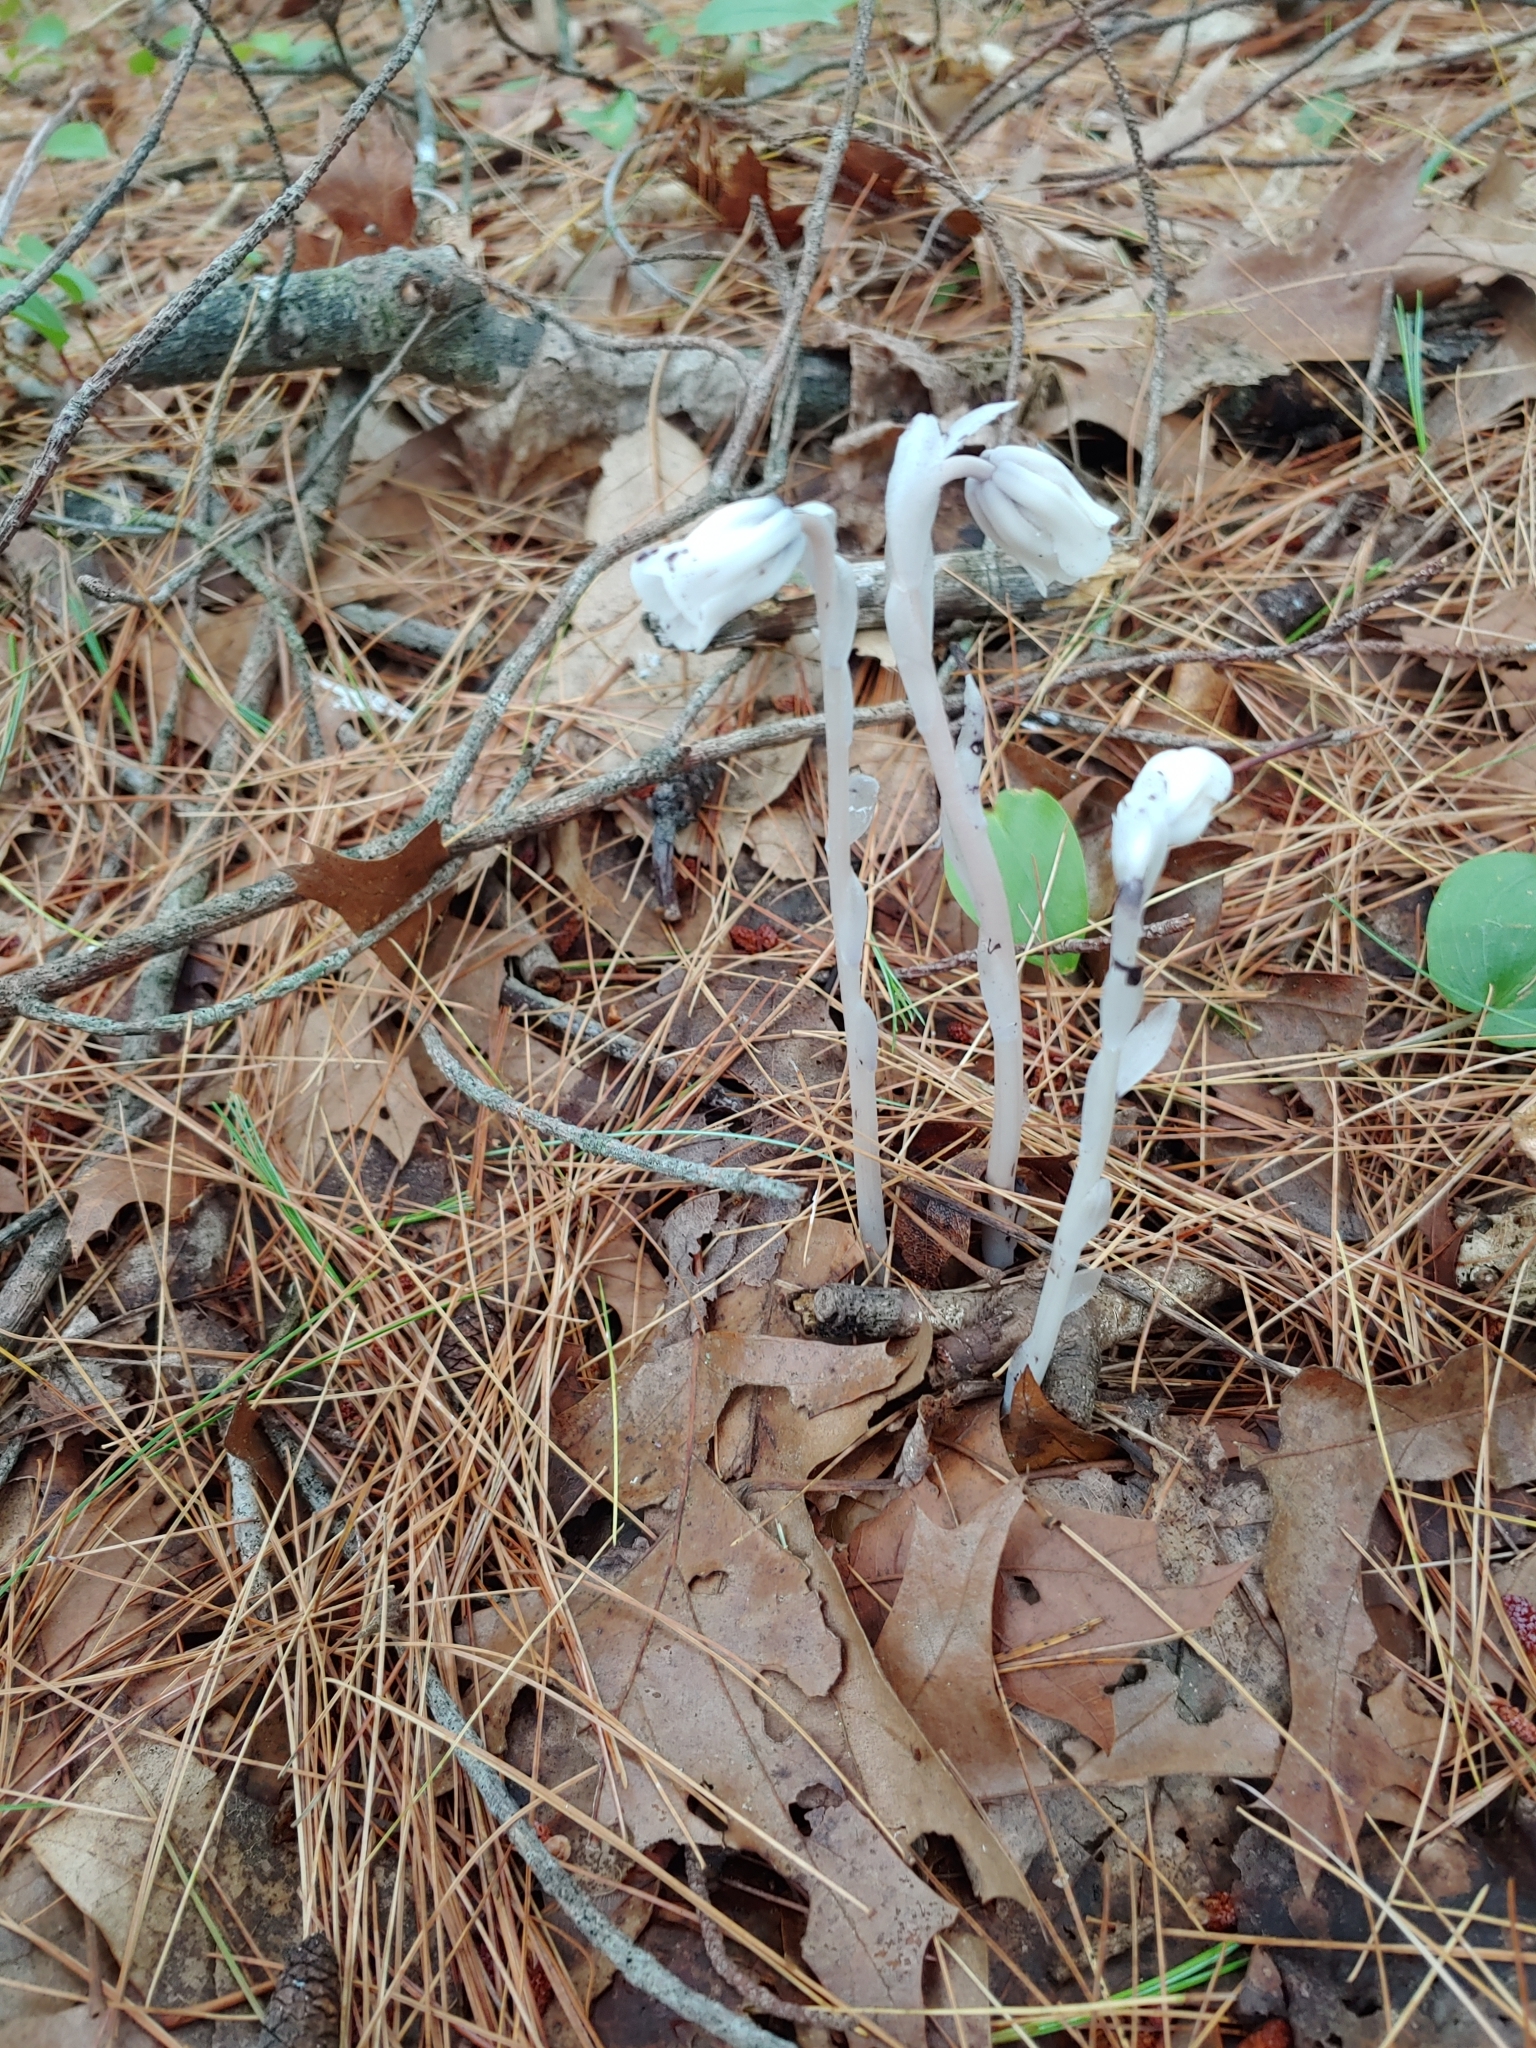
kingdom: Plantae
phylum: Tracheophyta
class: Magnoliopsida
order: Ericales
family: Ericaceae
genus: Monotropa
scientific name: Monotropa uniflora
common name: Convulsion root
